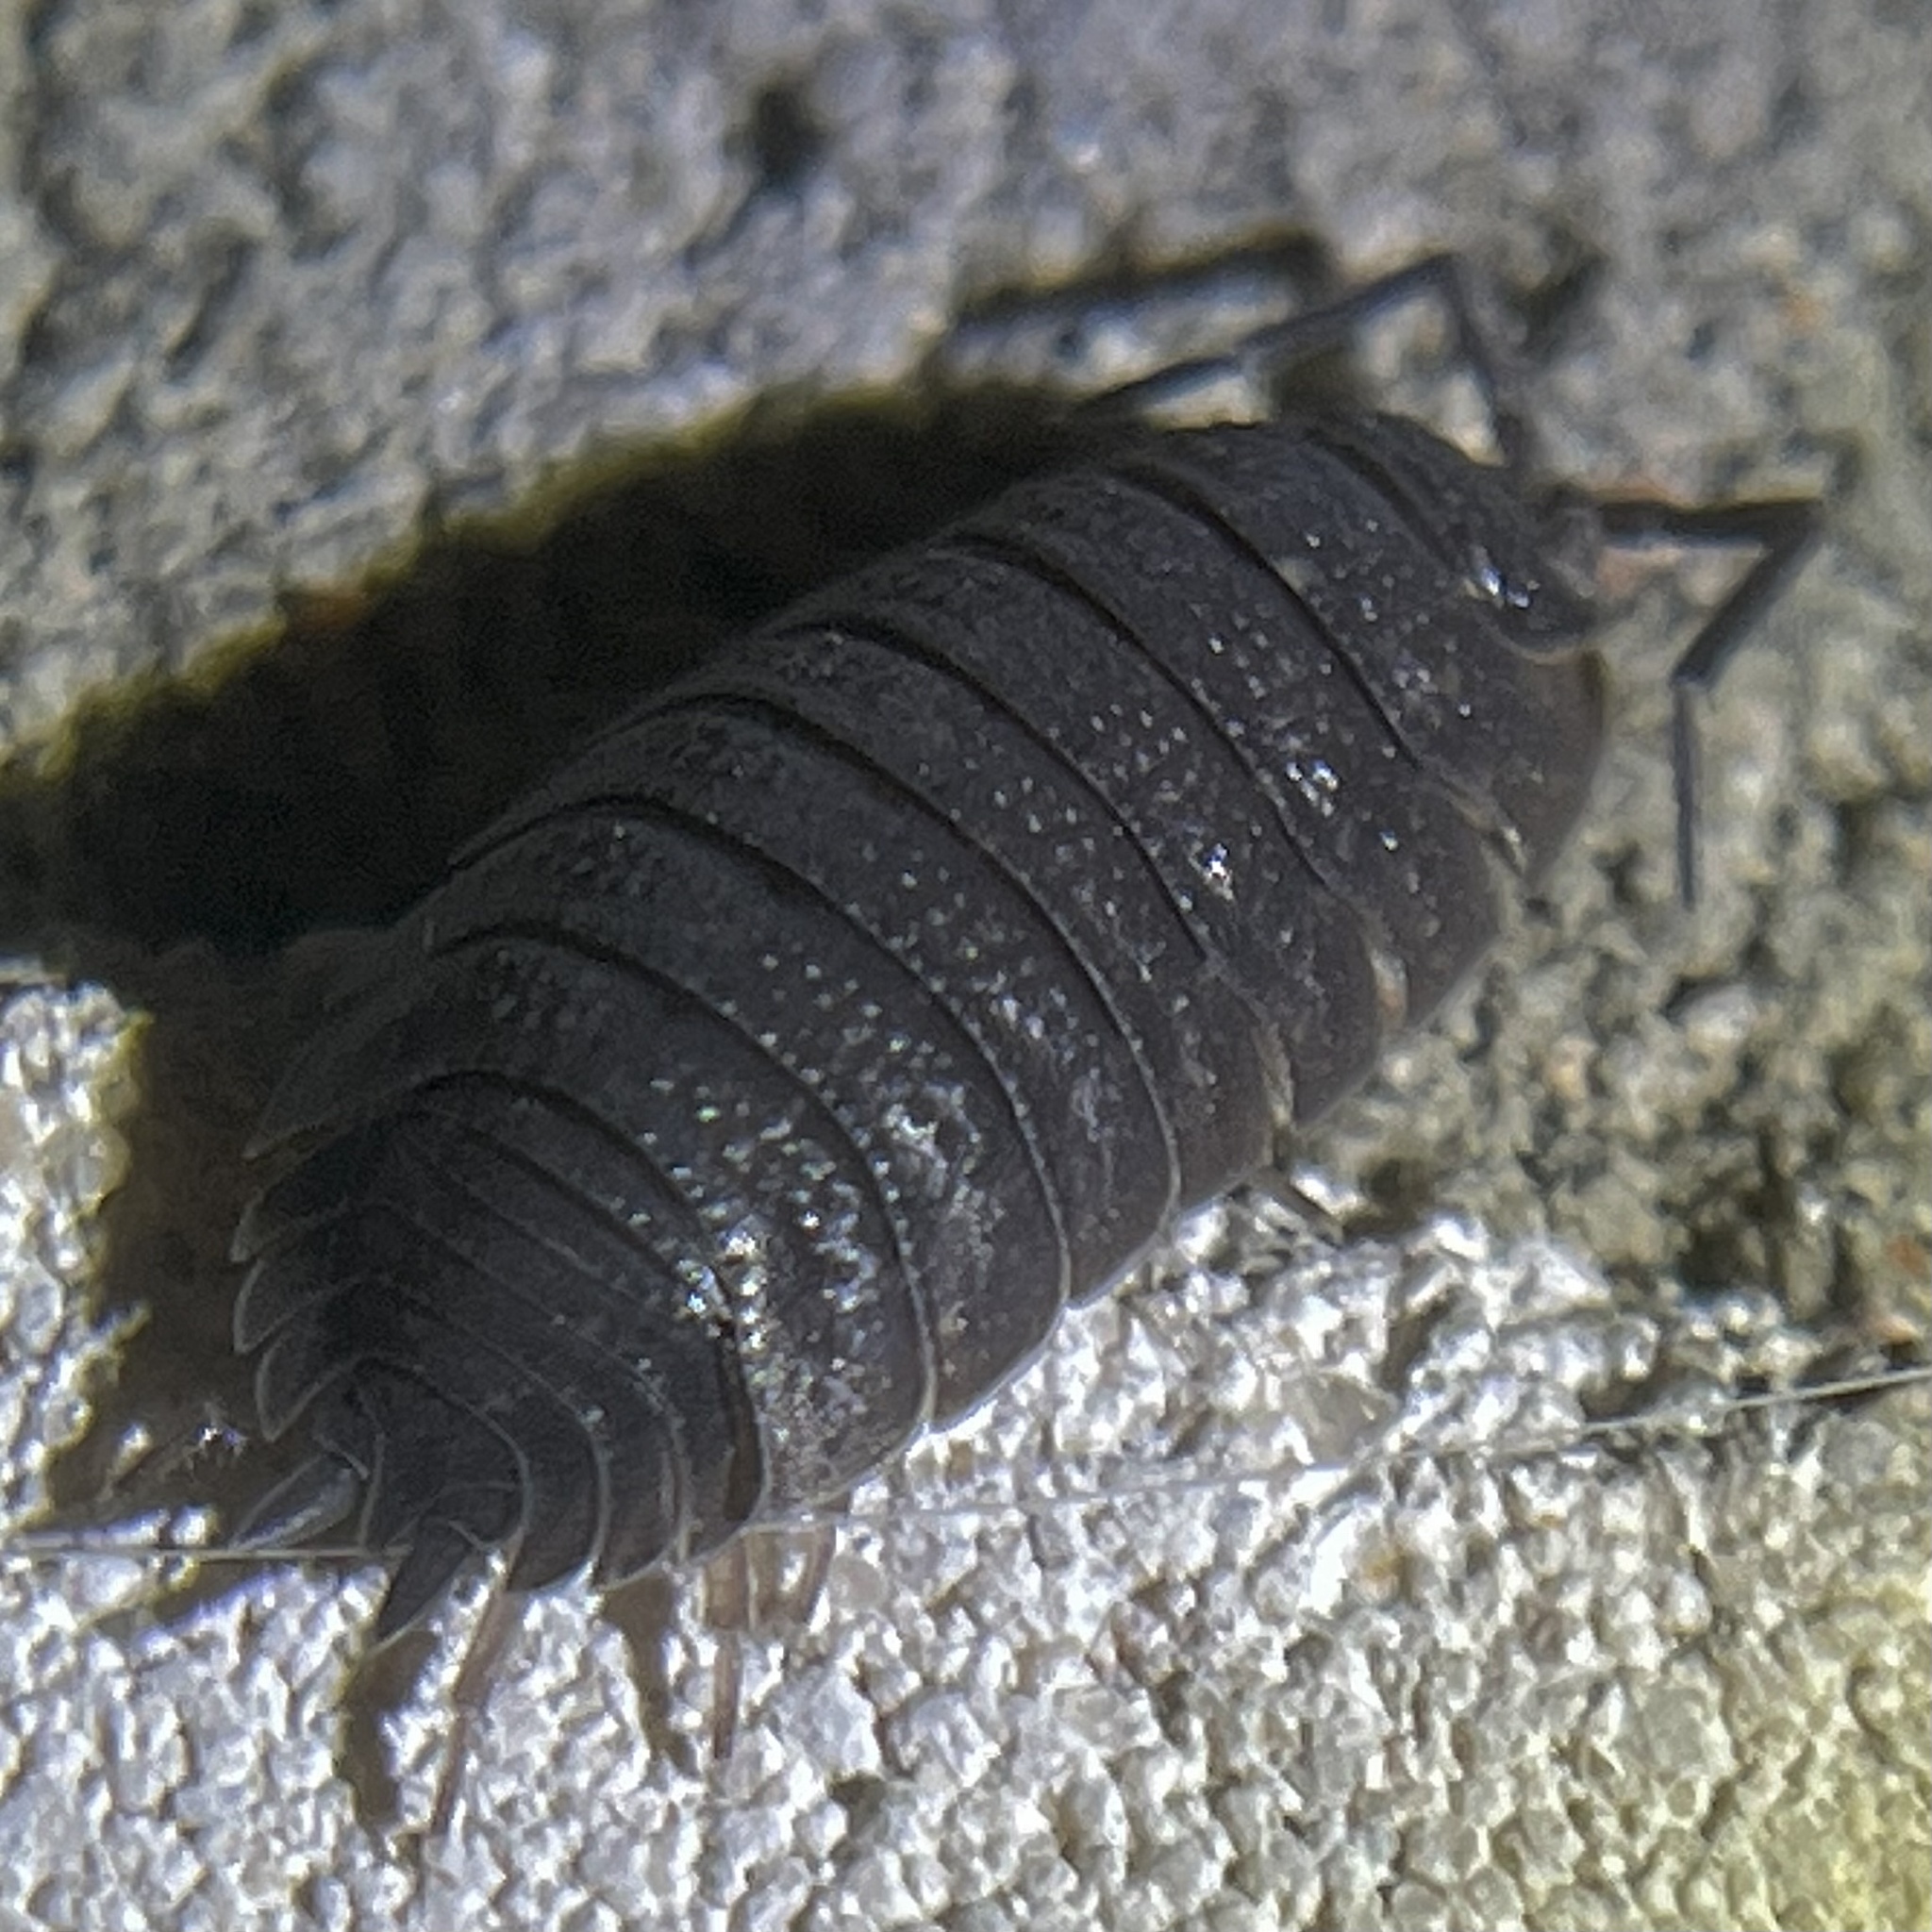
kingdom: Animalia
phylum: Arthropoda
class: Malacostraca
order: Isopoda
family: Porcellionidae
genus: Porcellio
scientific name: Porcellio scaber
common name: Common rough woodlouse
